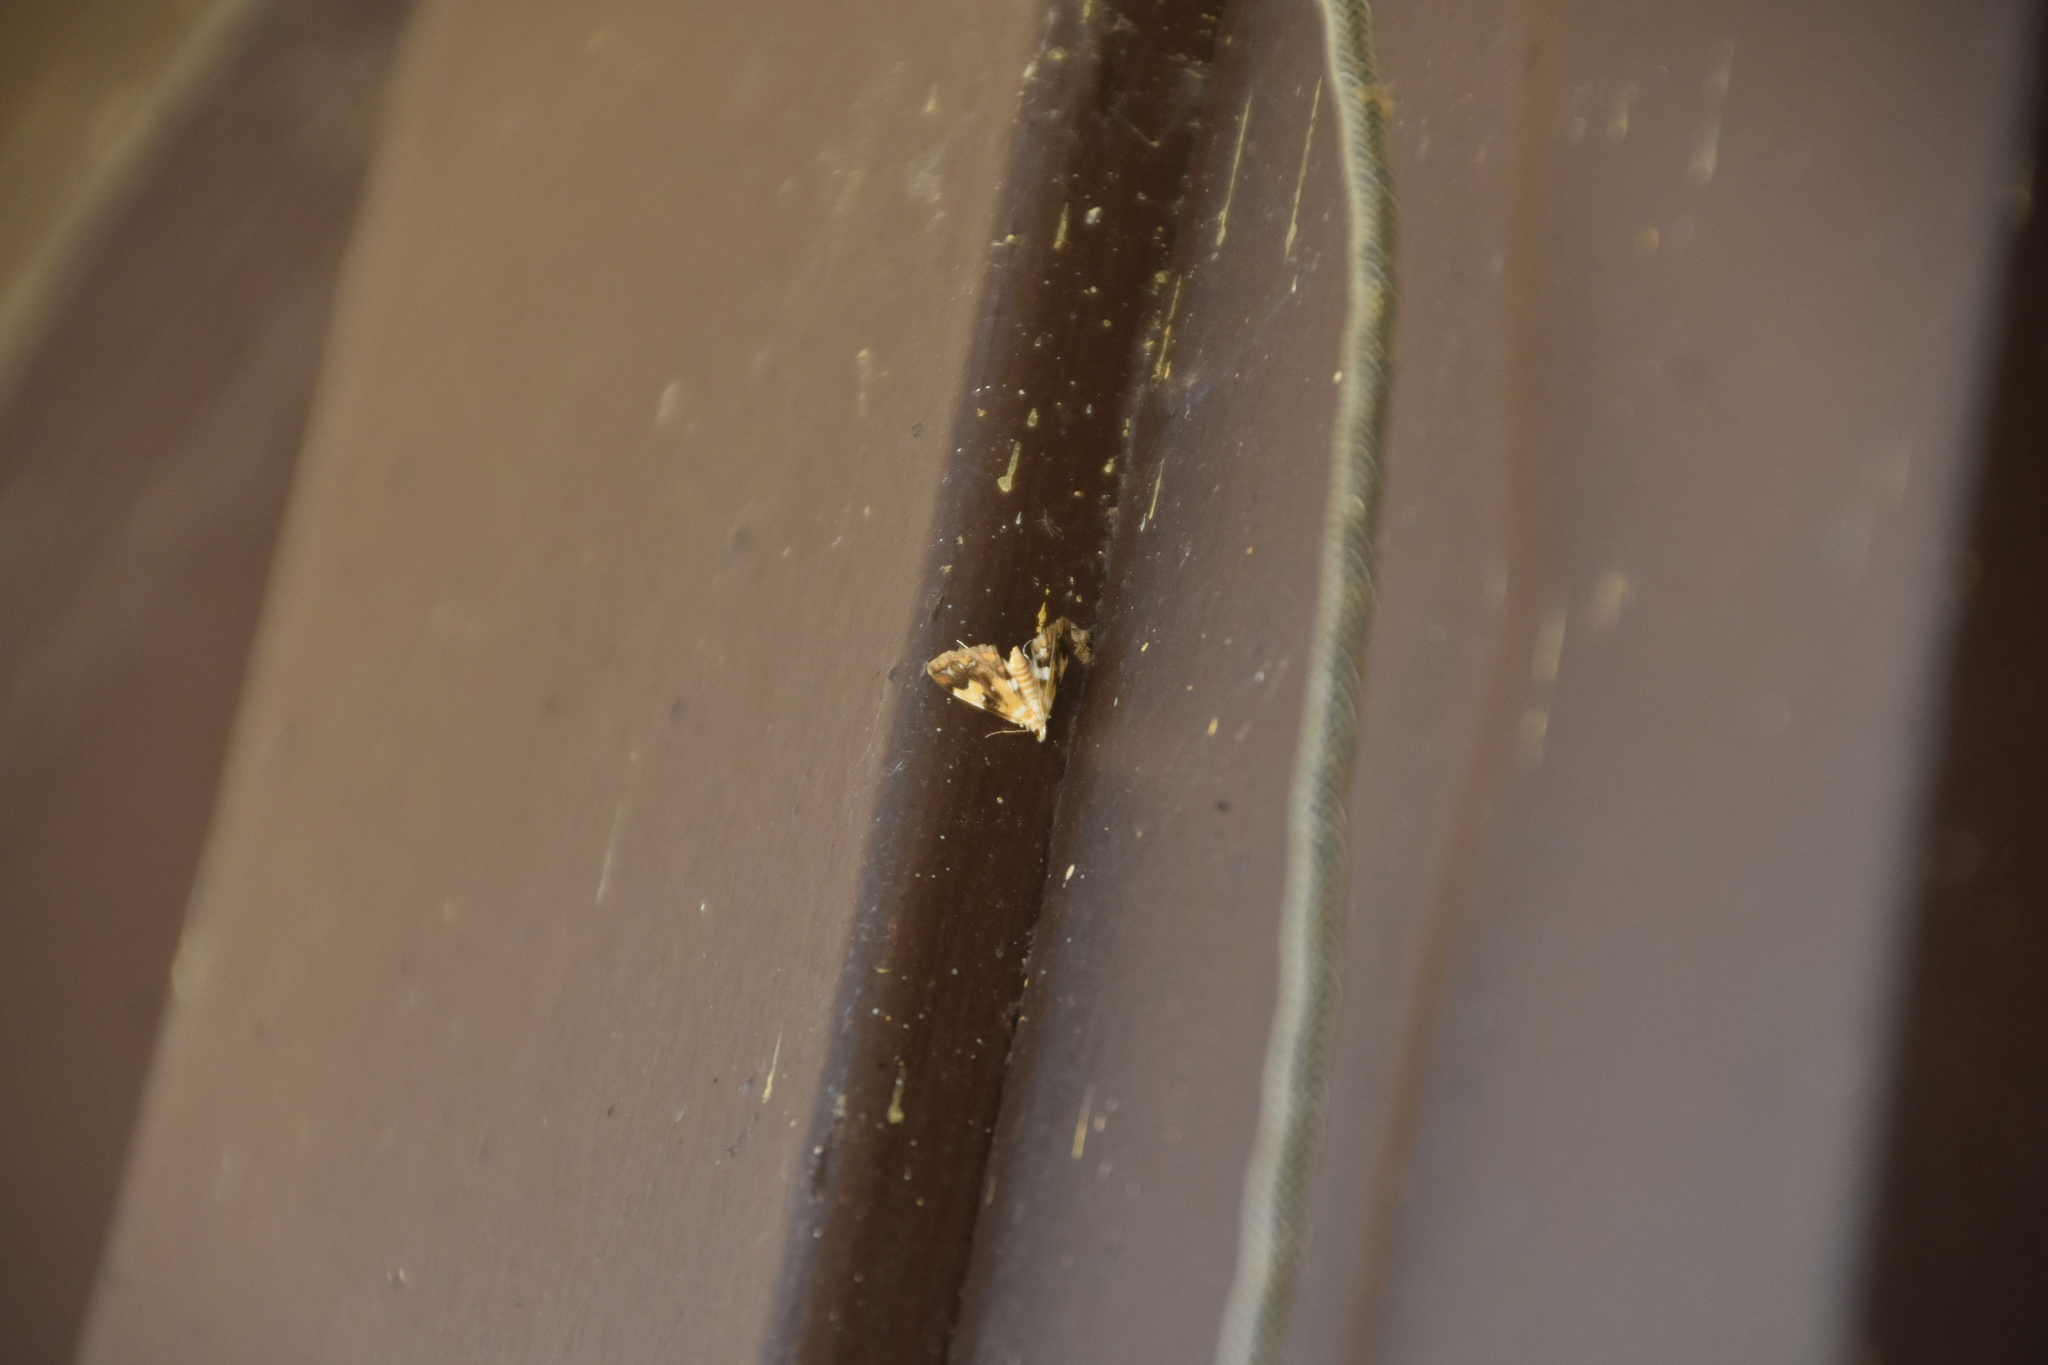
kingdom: Animalia
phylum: Arthropoda
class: Insecta
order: Lepidoptera
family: Pyralidae
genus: Pyralis
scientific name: Pyralis farinalis
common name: Meal moth
